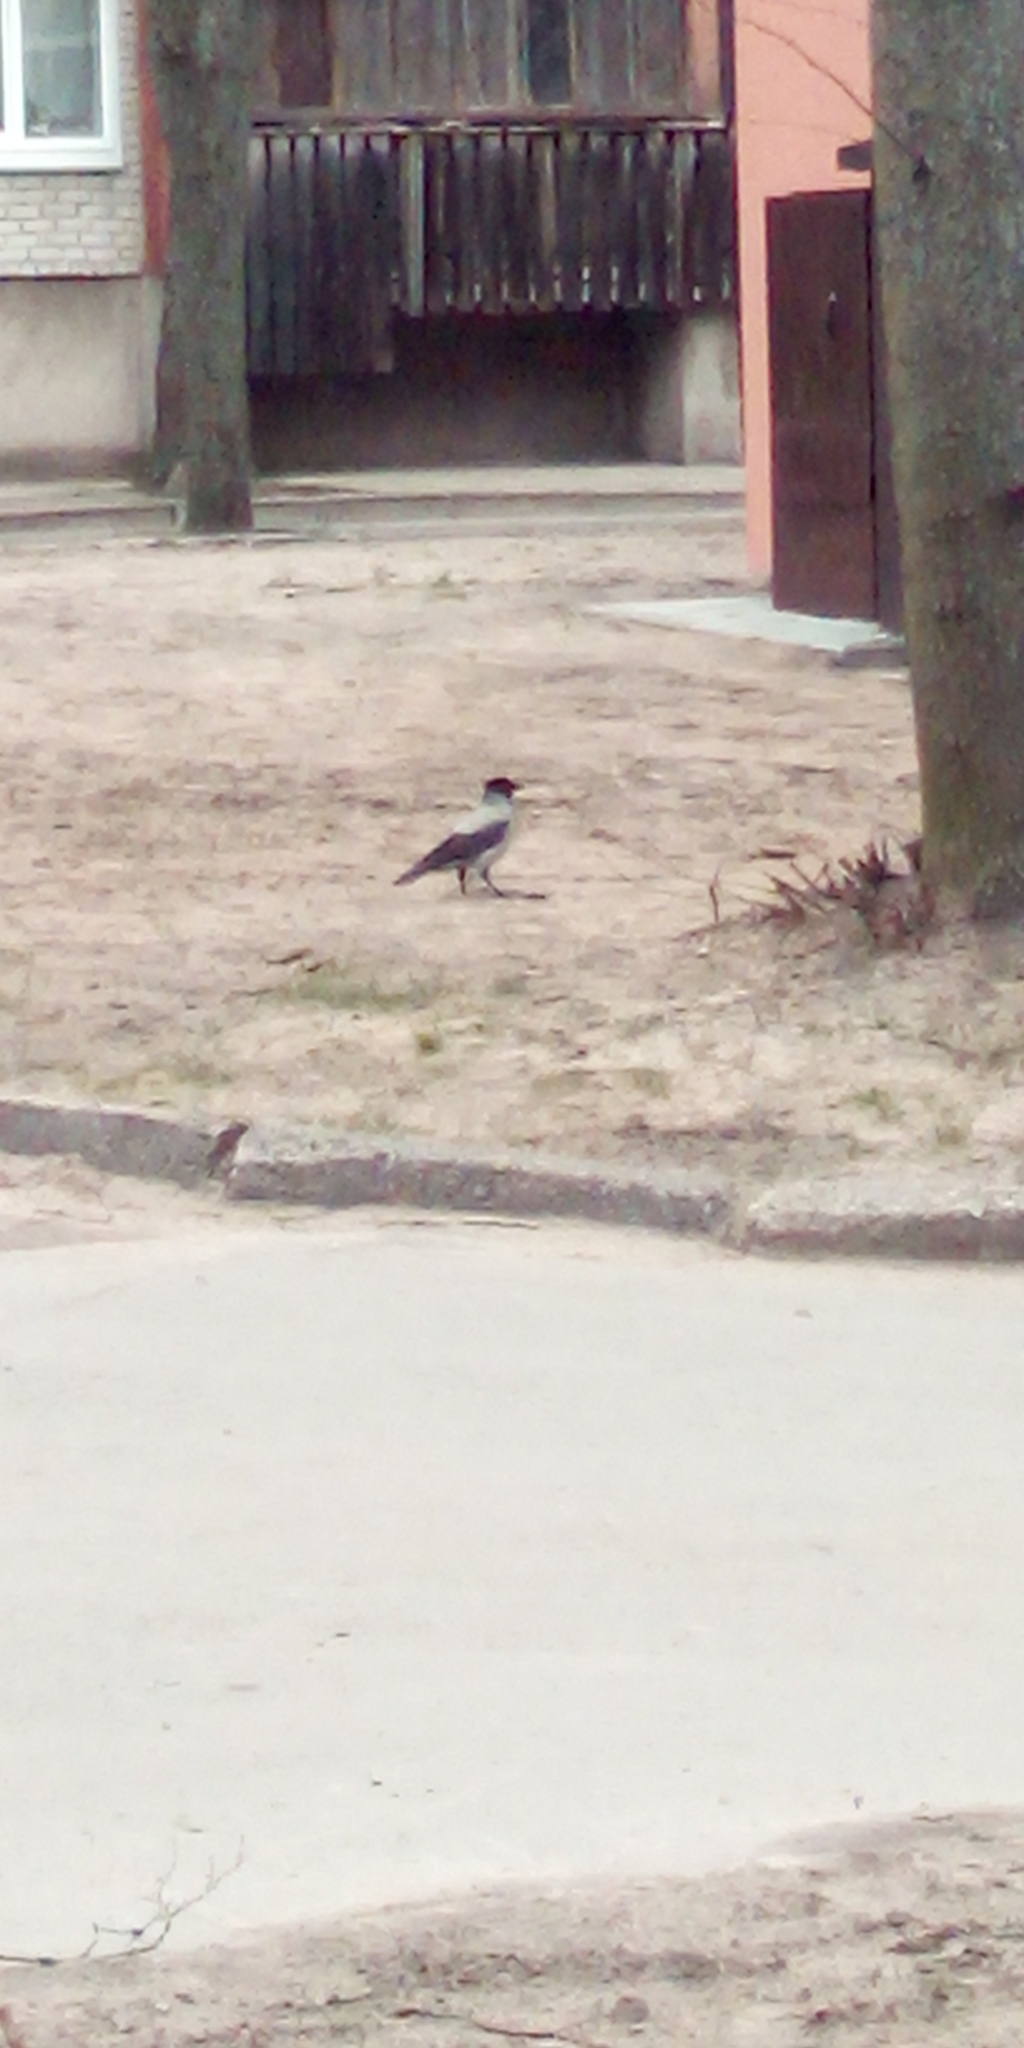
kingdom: Animalia
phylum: Chordata
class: Aves
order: Passeriformes
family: Corvidae
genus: Corvus
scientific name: Corvus cornix
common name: Hooded crow
